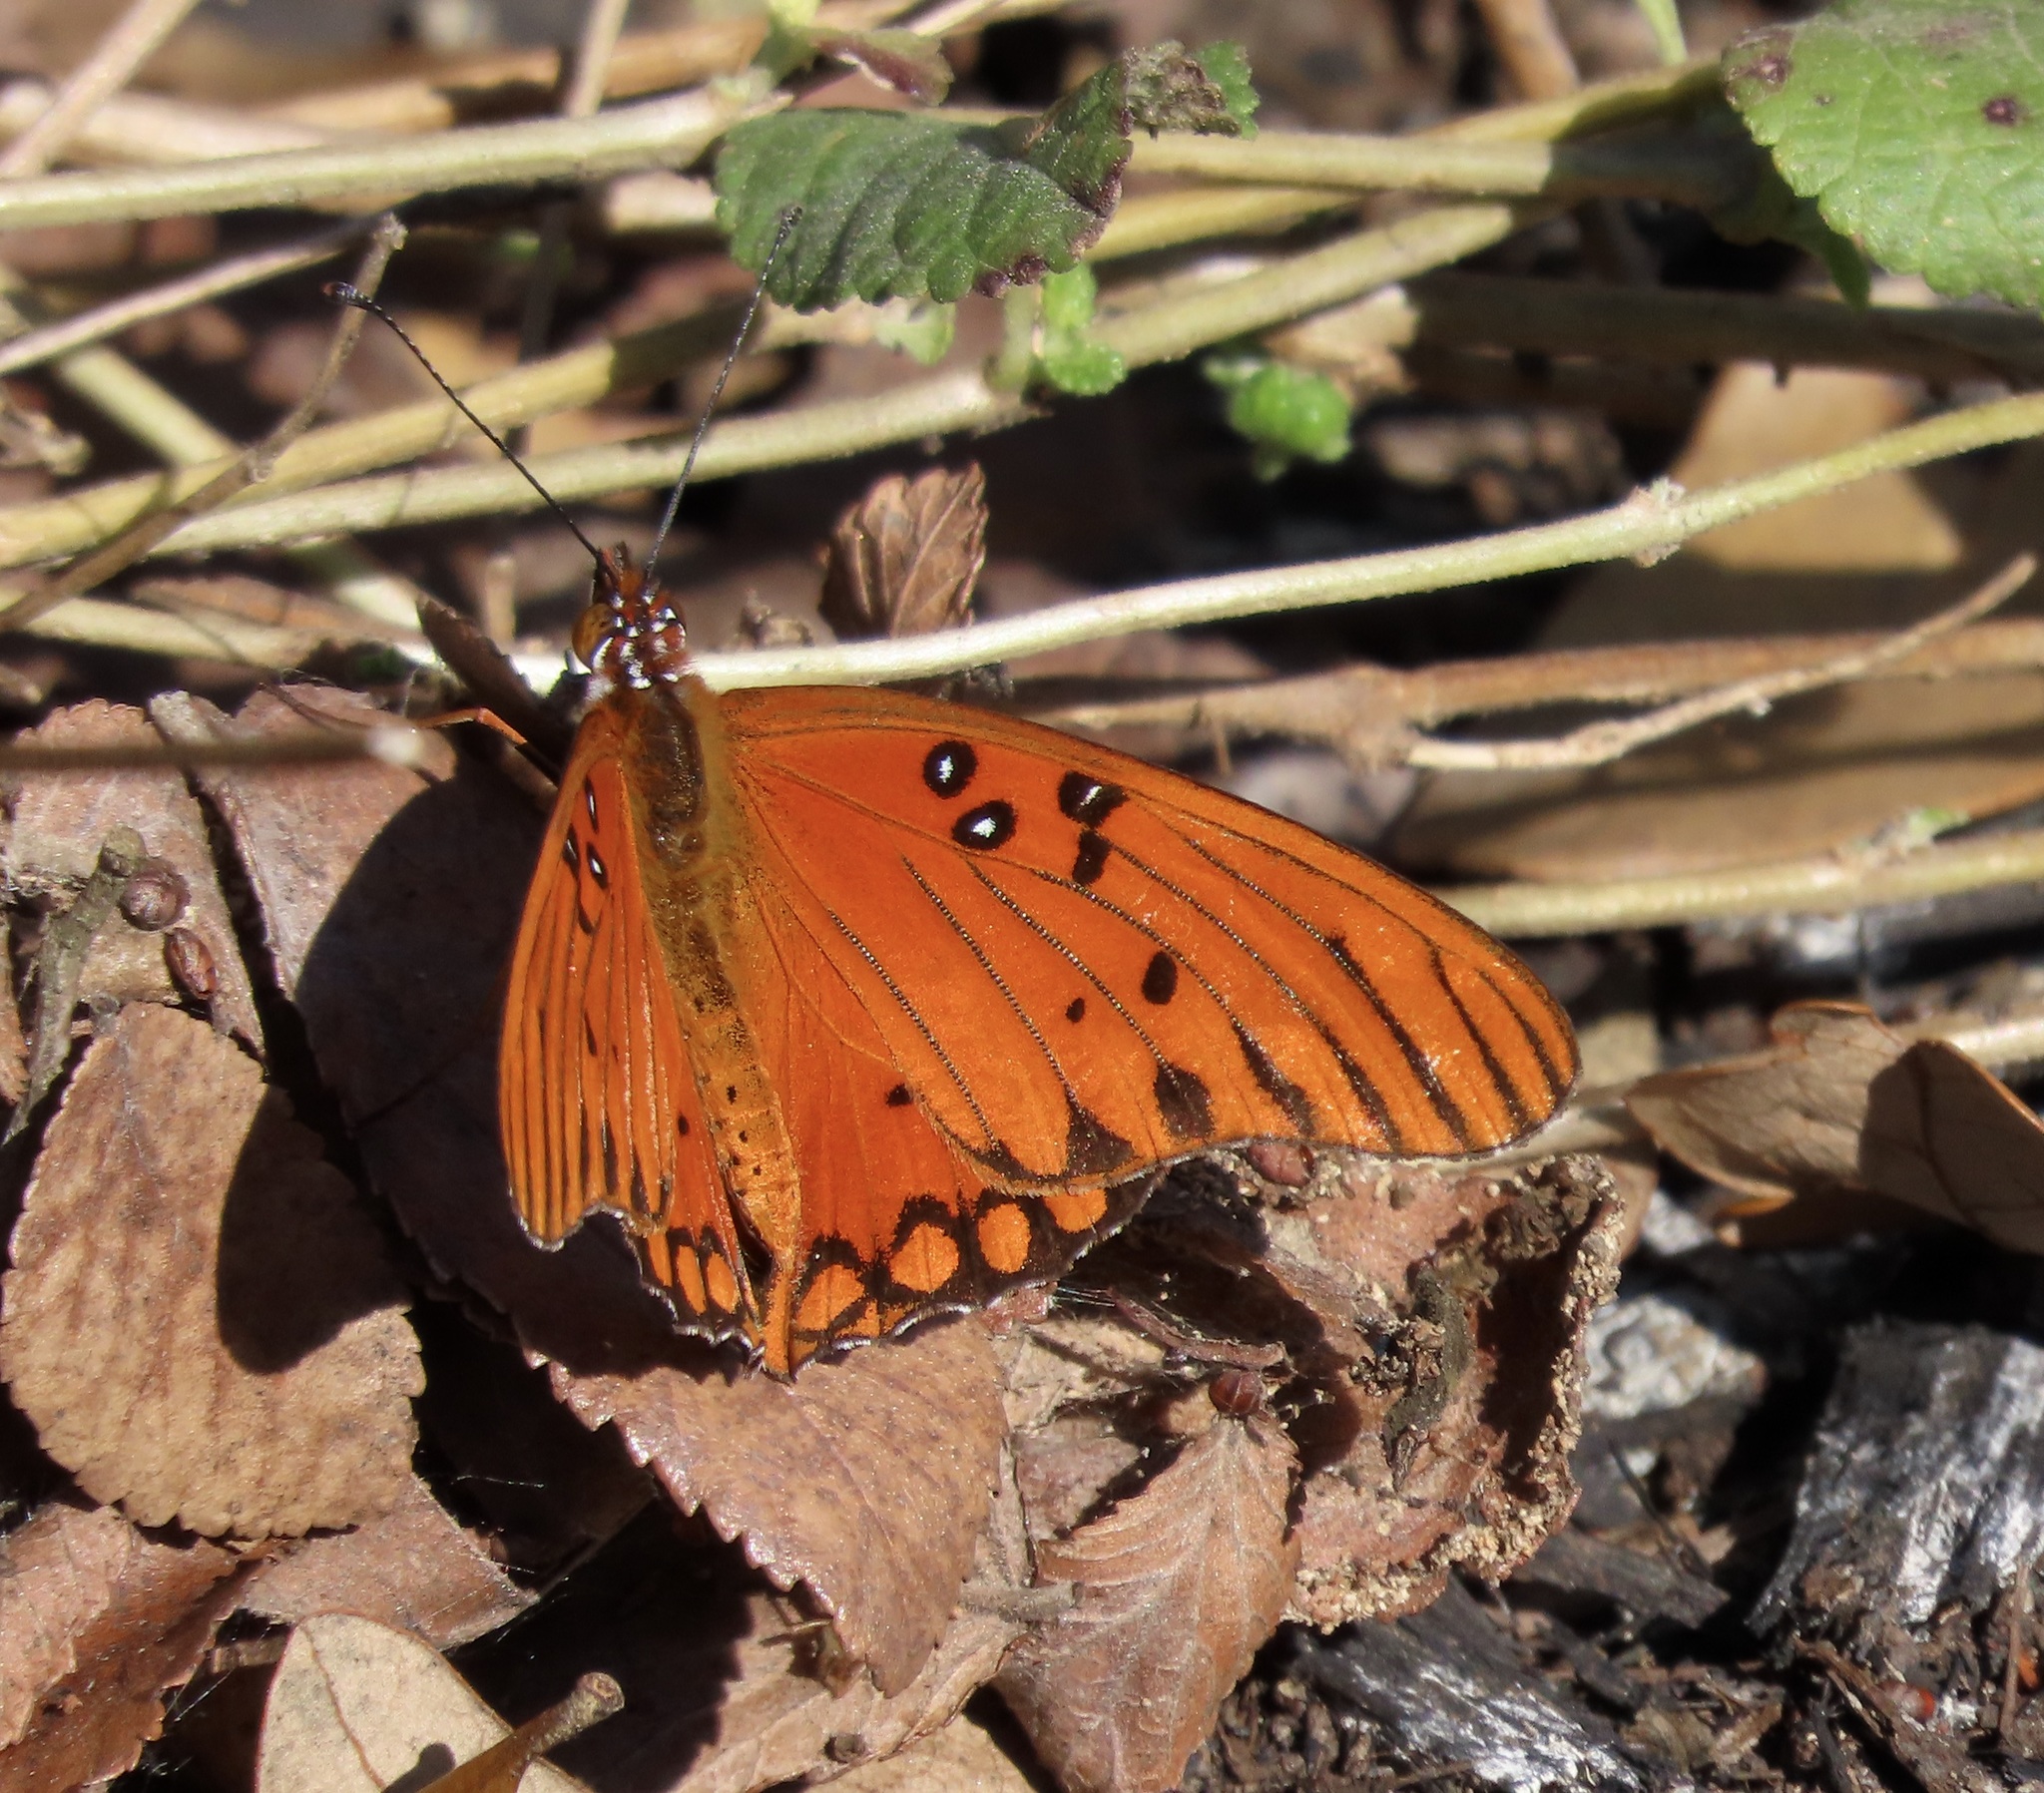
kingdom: Animalia
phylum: Arthropoda
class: Insecta
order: Lepidoptera
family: Nymphalidae
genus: Dione
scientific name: Dione vanillae
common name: Gulf fritillary
